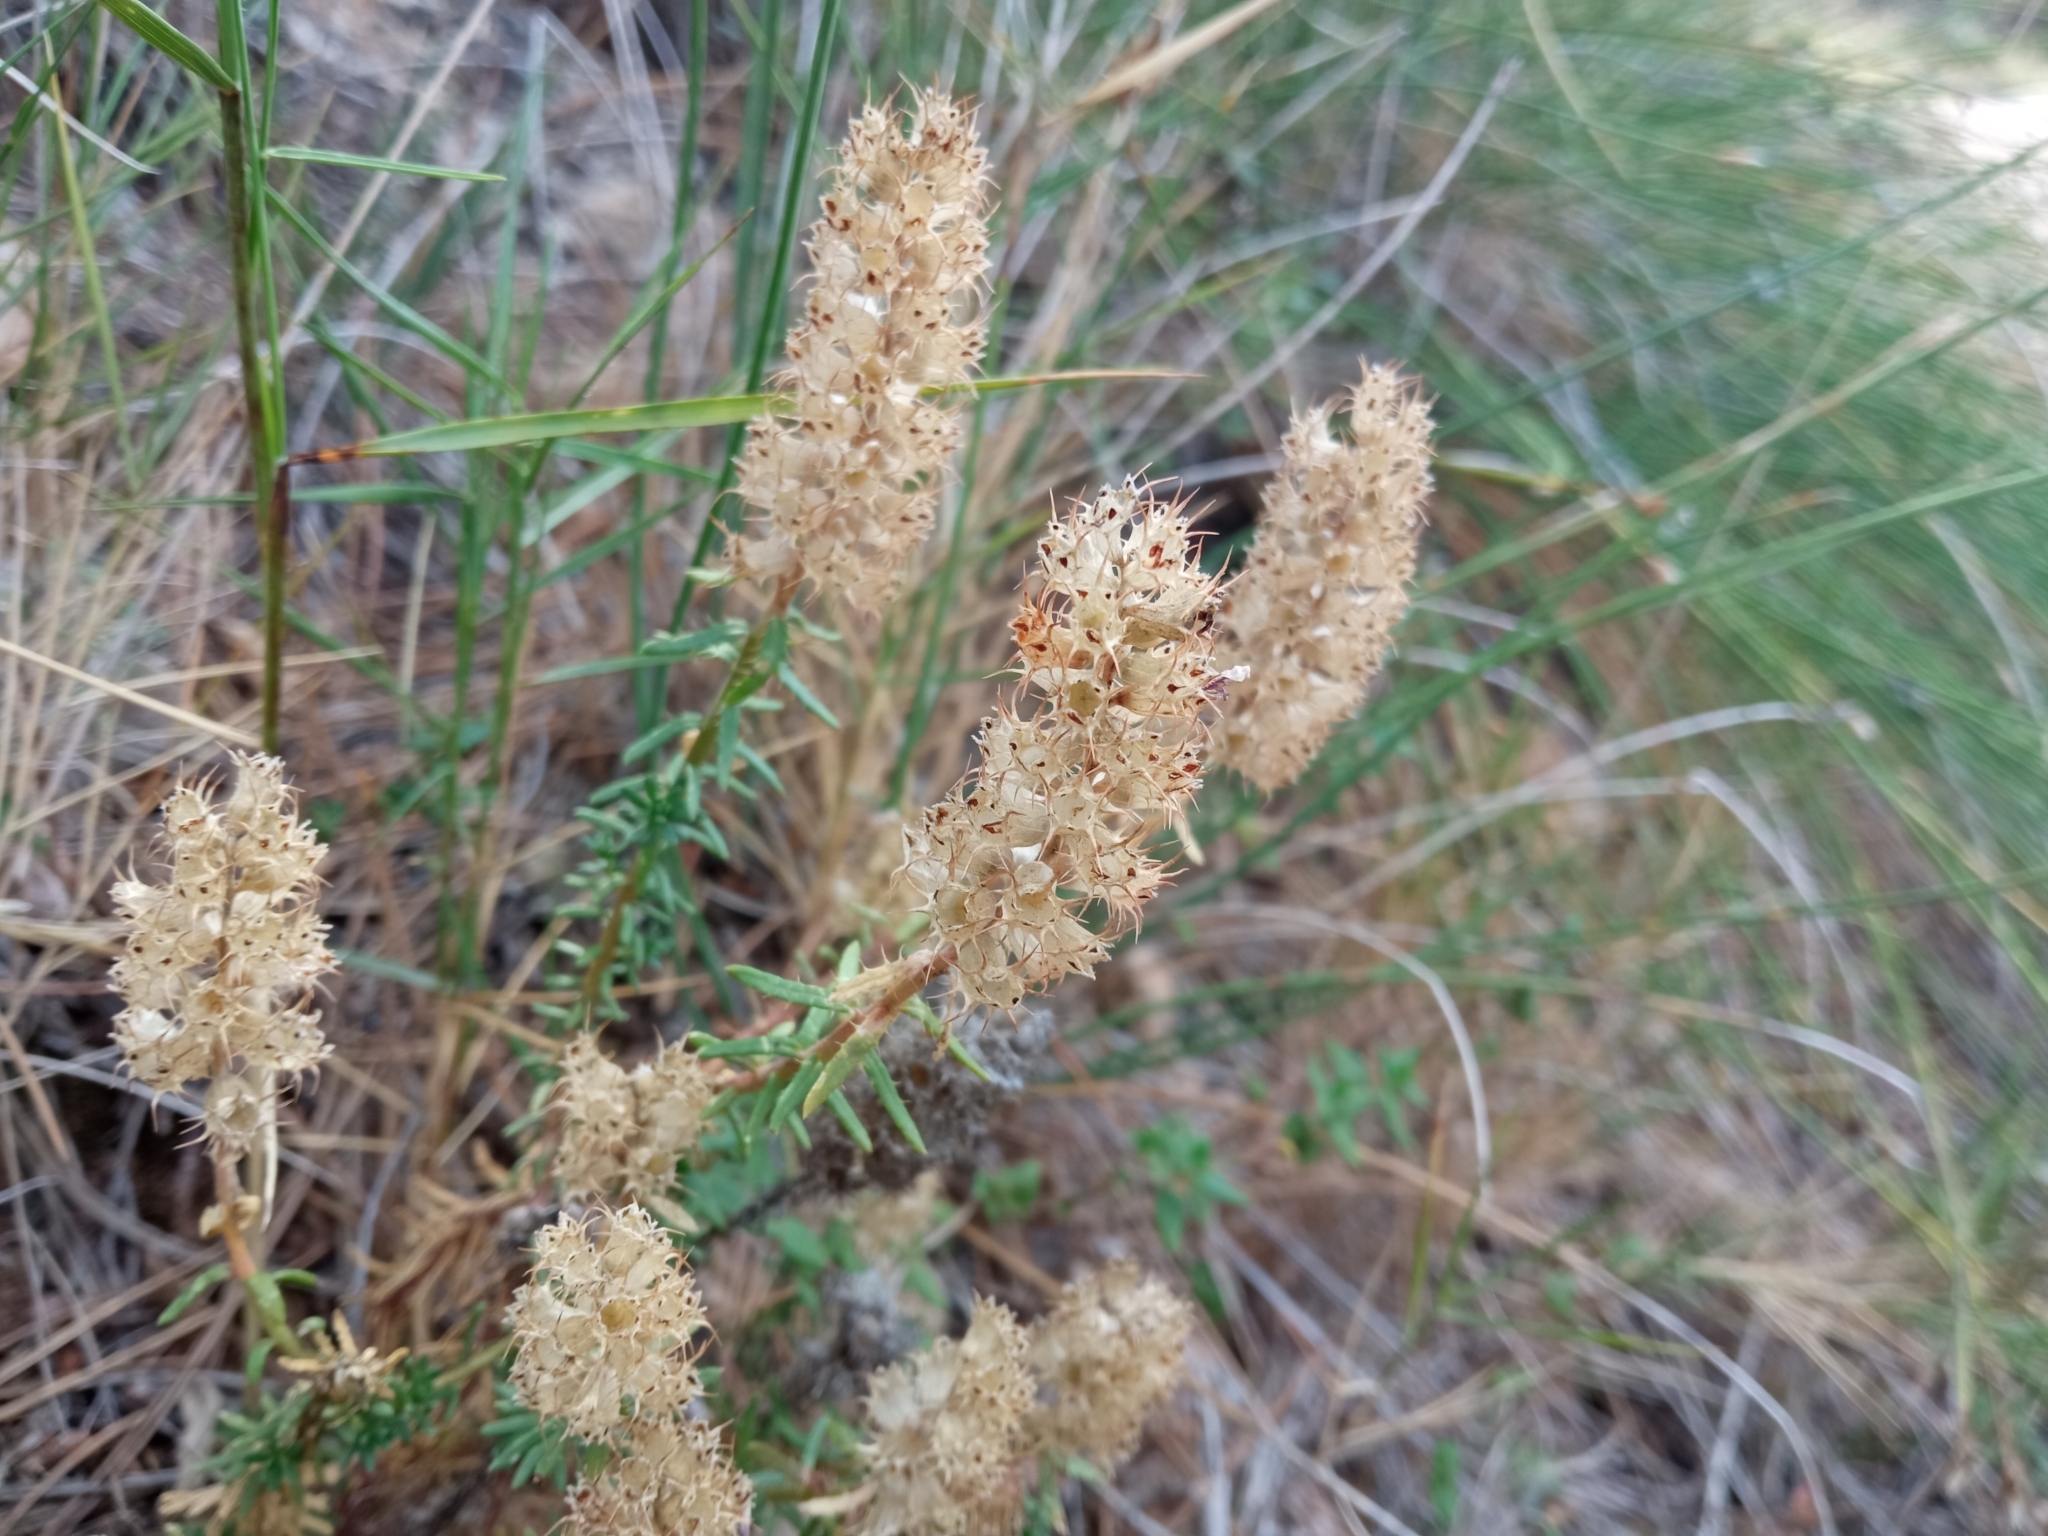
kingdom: Plantae
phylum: Tracheophyta
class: Magnoliopsida
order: Ericales
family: Primulaceae
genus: Coris
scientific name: Coris monspeliensis
